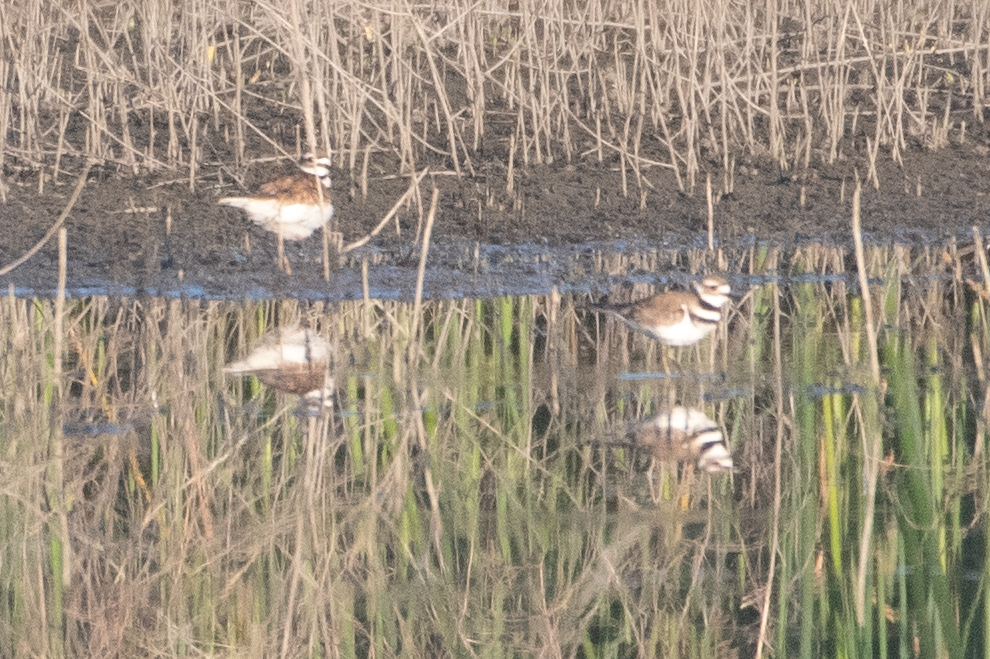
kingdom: Animalia
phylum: Chordata
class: Aves
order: Charadriiformes
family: Charadriidae
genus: Charadrius
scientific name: Charadrius vociferus
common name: Killdeer
